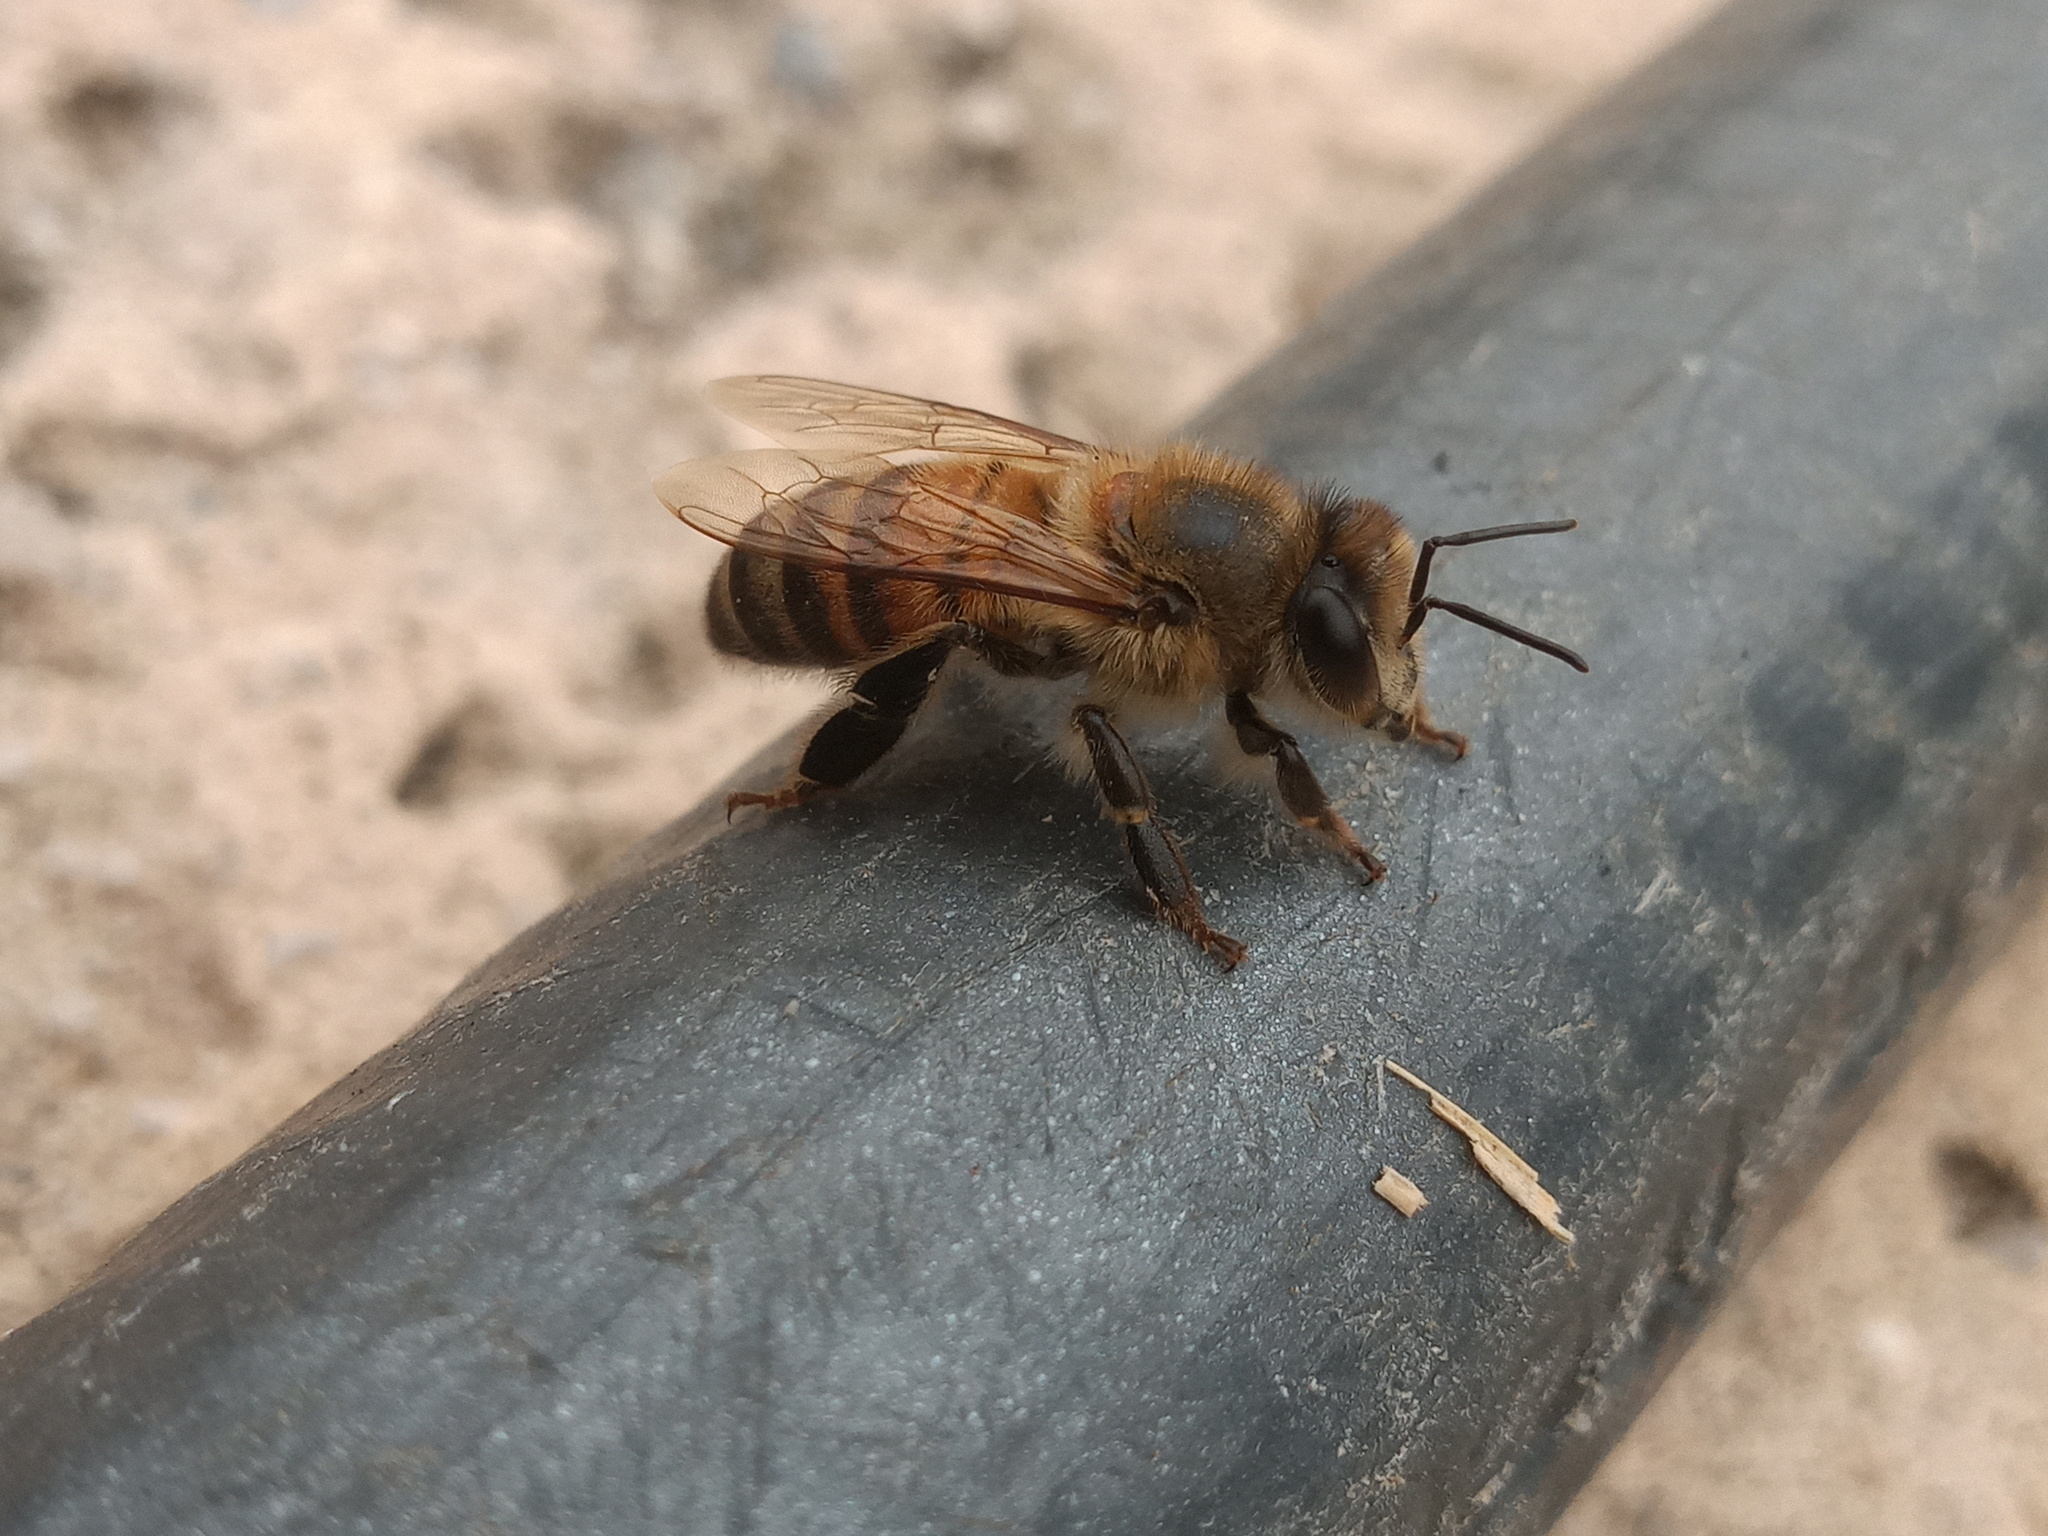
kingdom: Animalia
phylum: Arthropoda
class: Insecta
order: Hymenoptera
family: Apidae
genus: Apis
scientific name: Apis mellifera
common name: Honey bee
